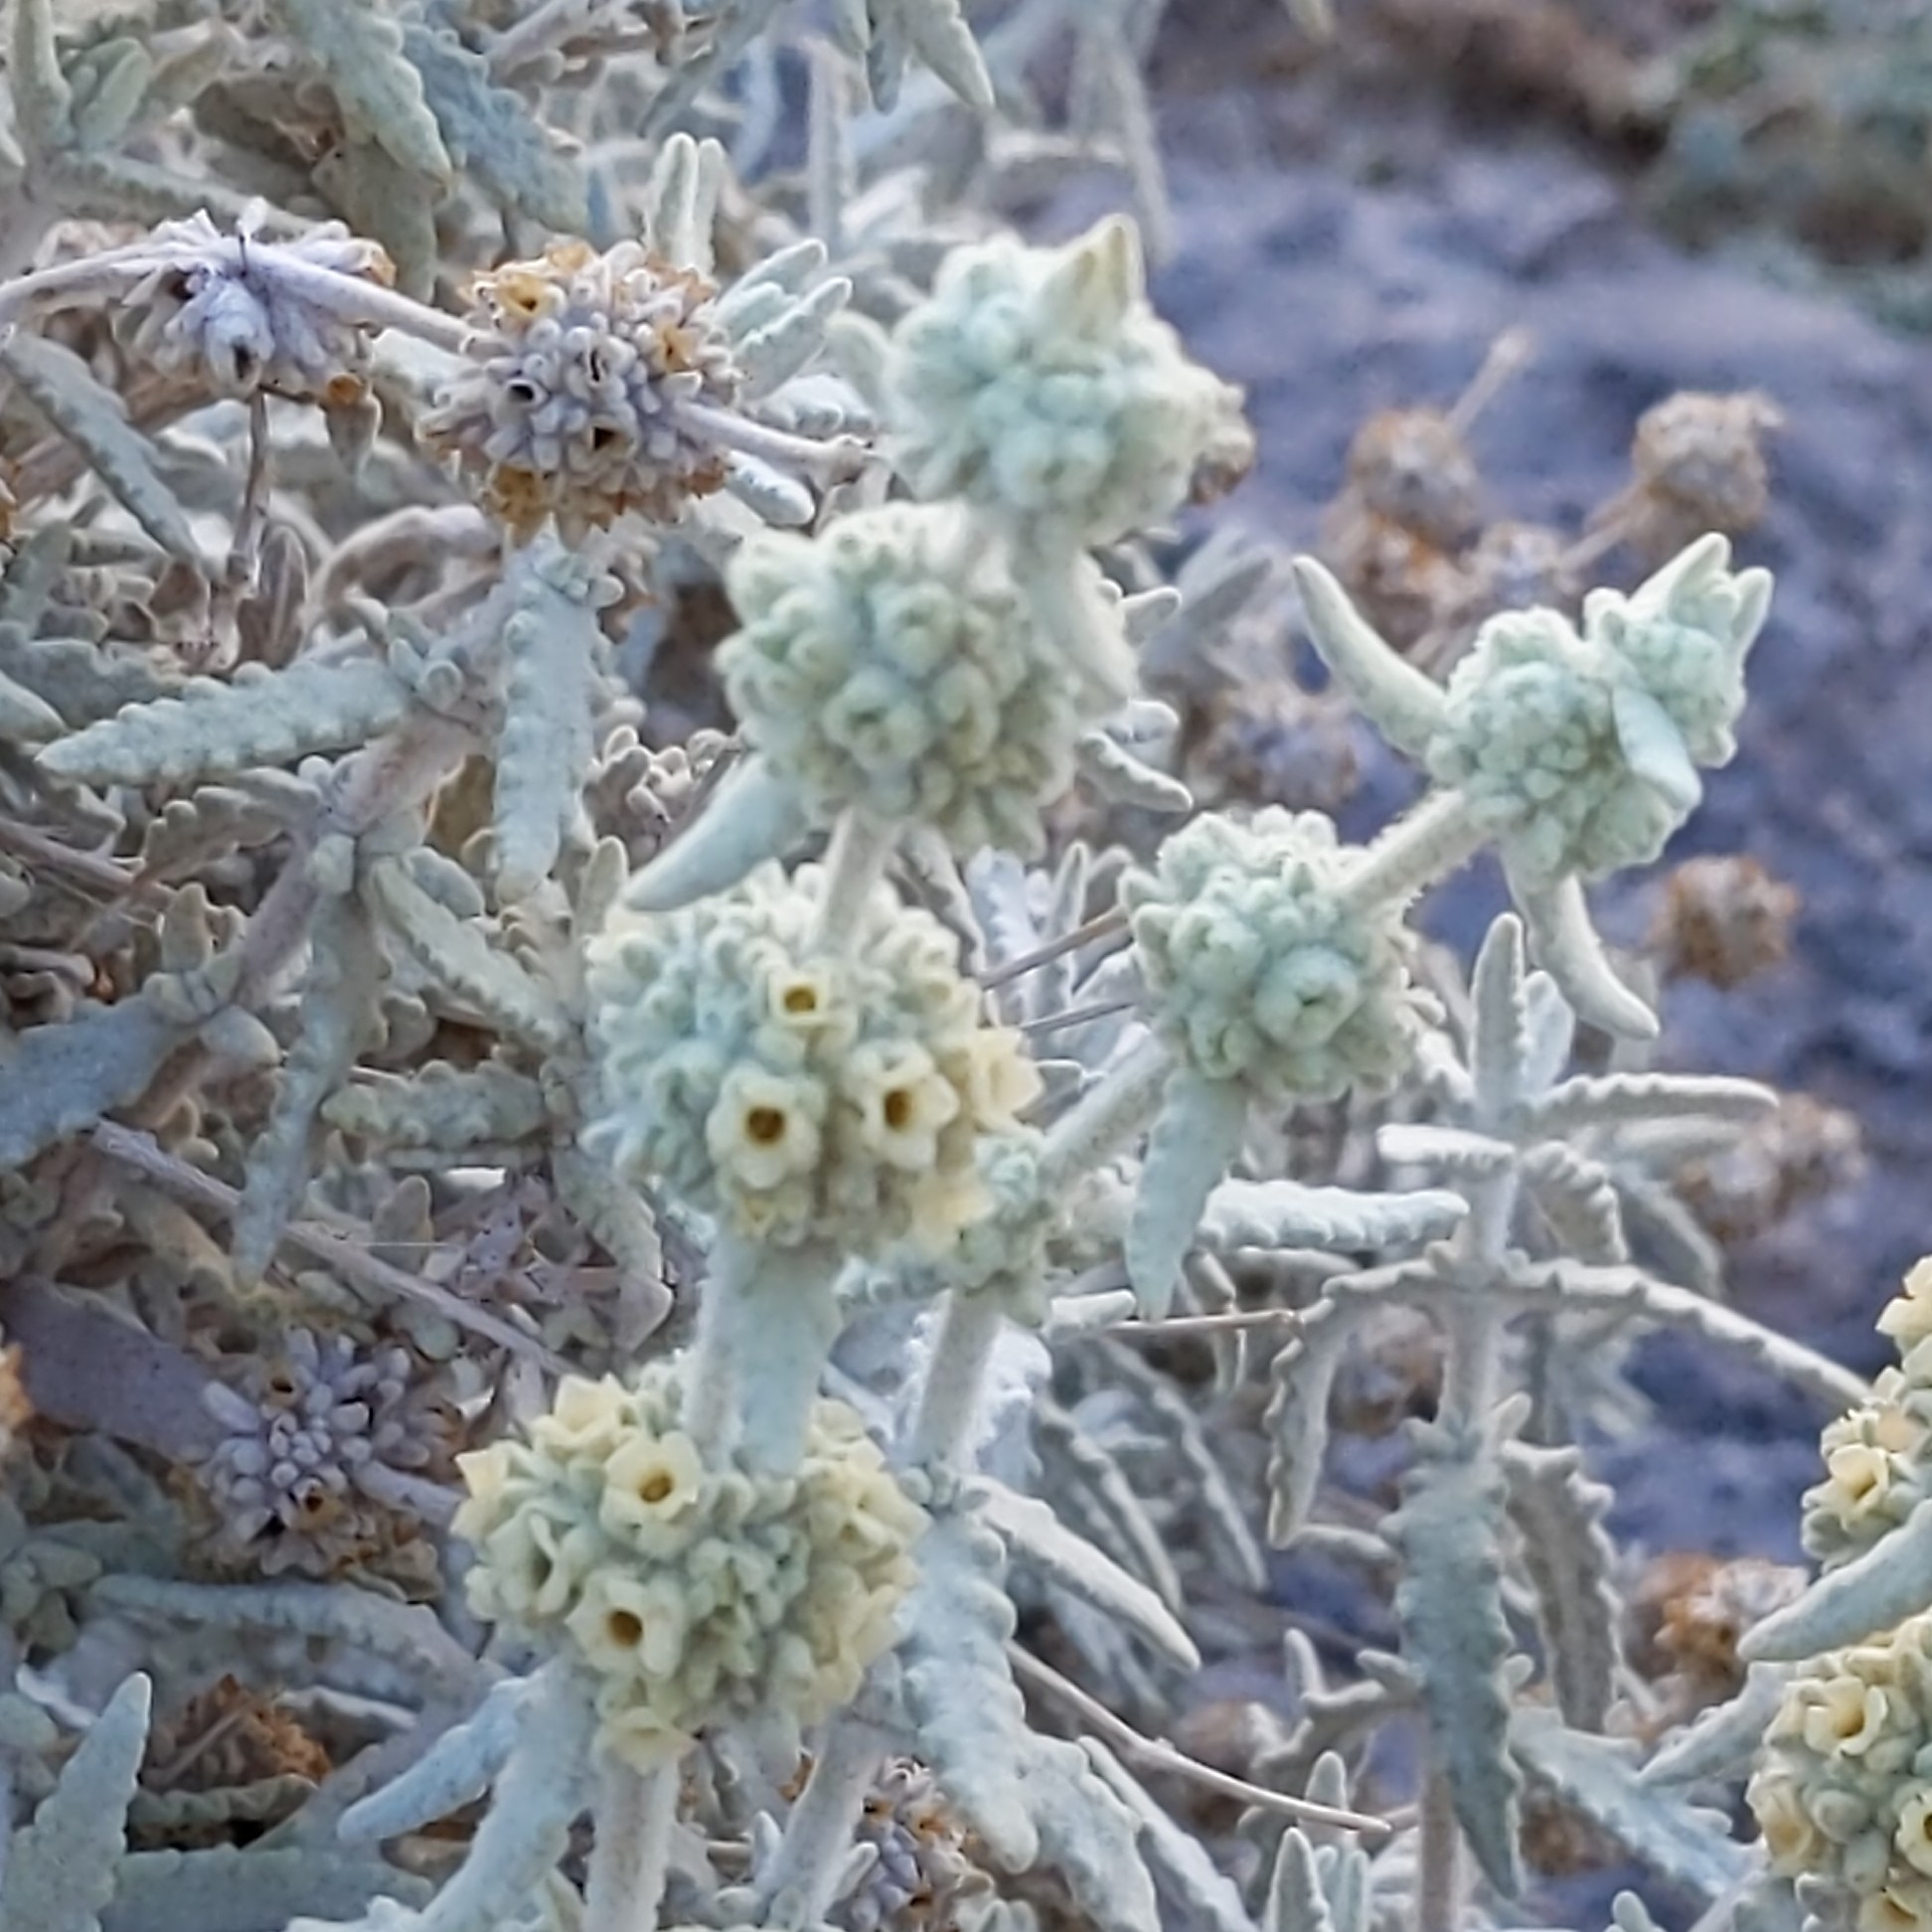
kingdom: Plantae
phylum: Tracheophyta
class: Magnoliopsida
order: Lamiales
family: Scrophulariaceae
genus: Buddleja
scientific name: Buddleja utahensis
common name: Utah butterfly-bush
